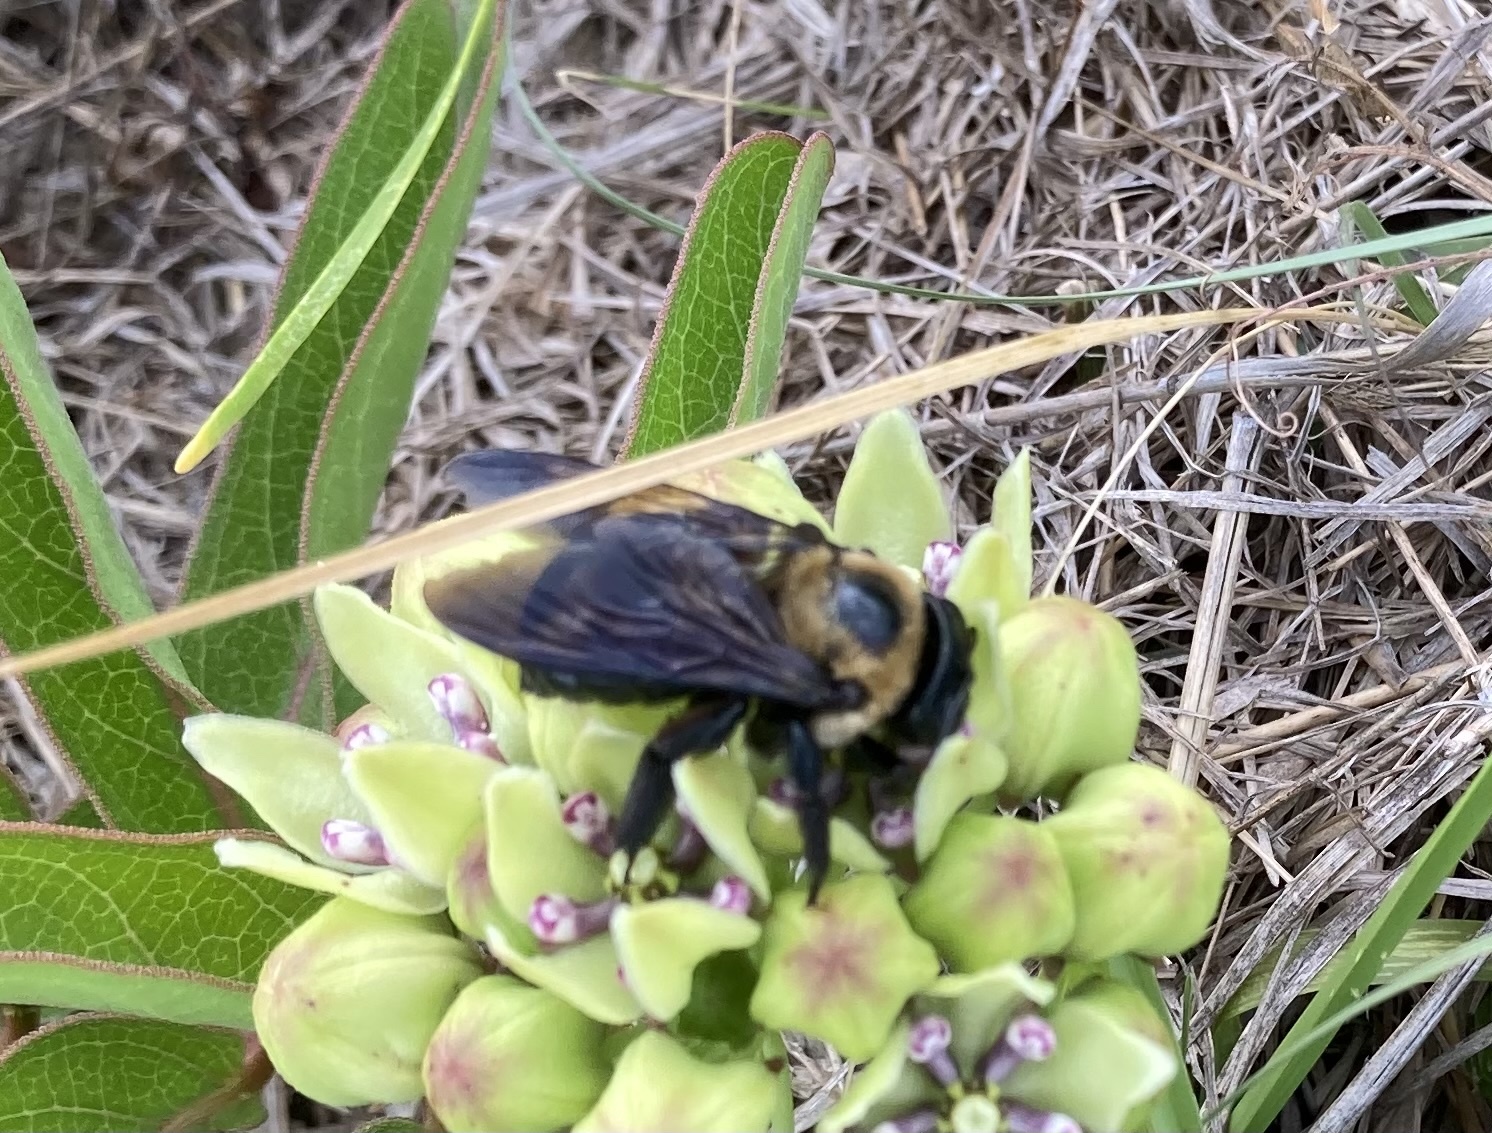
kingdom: Animalia
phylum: Arthropoda
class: Insecta
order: Hymenoptera
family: Apidae
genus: Xylocopa
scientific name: Xylocopa virginica
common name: Carpenter bee
